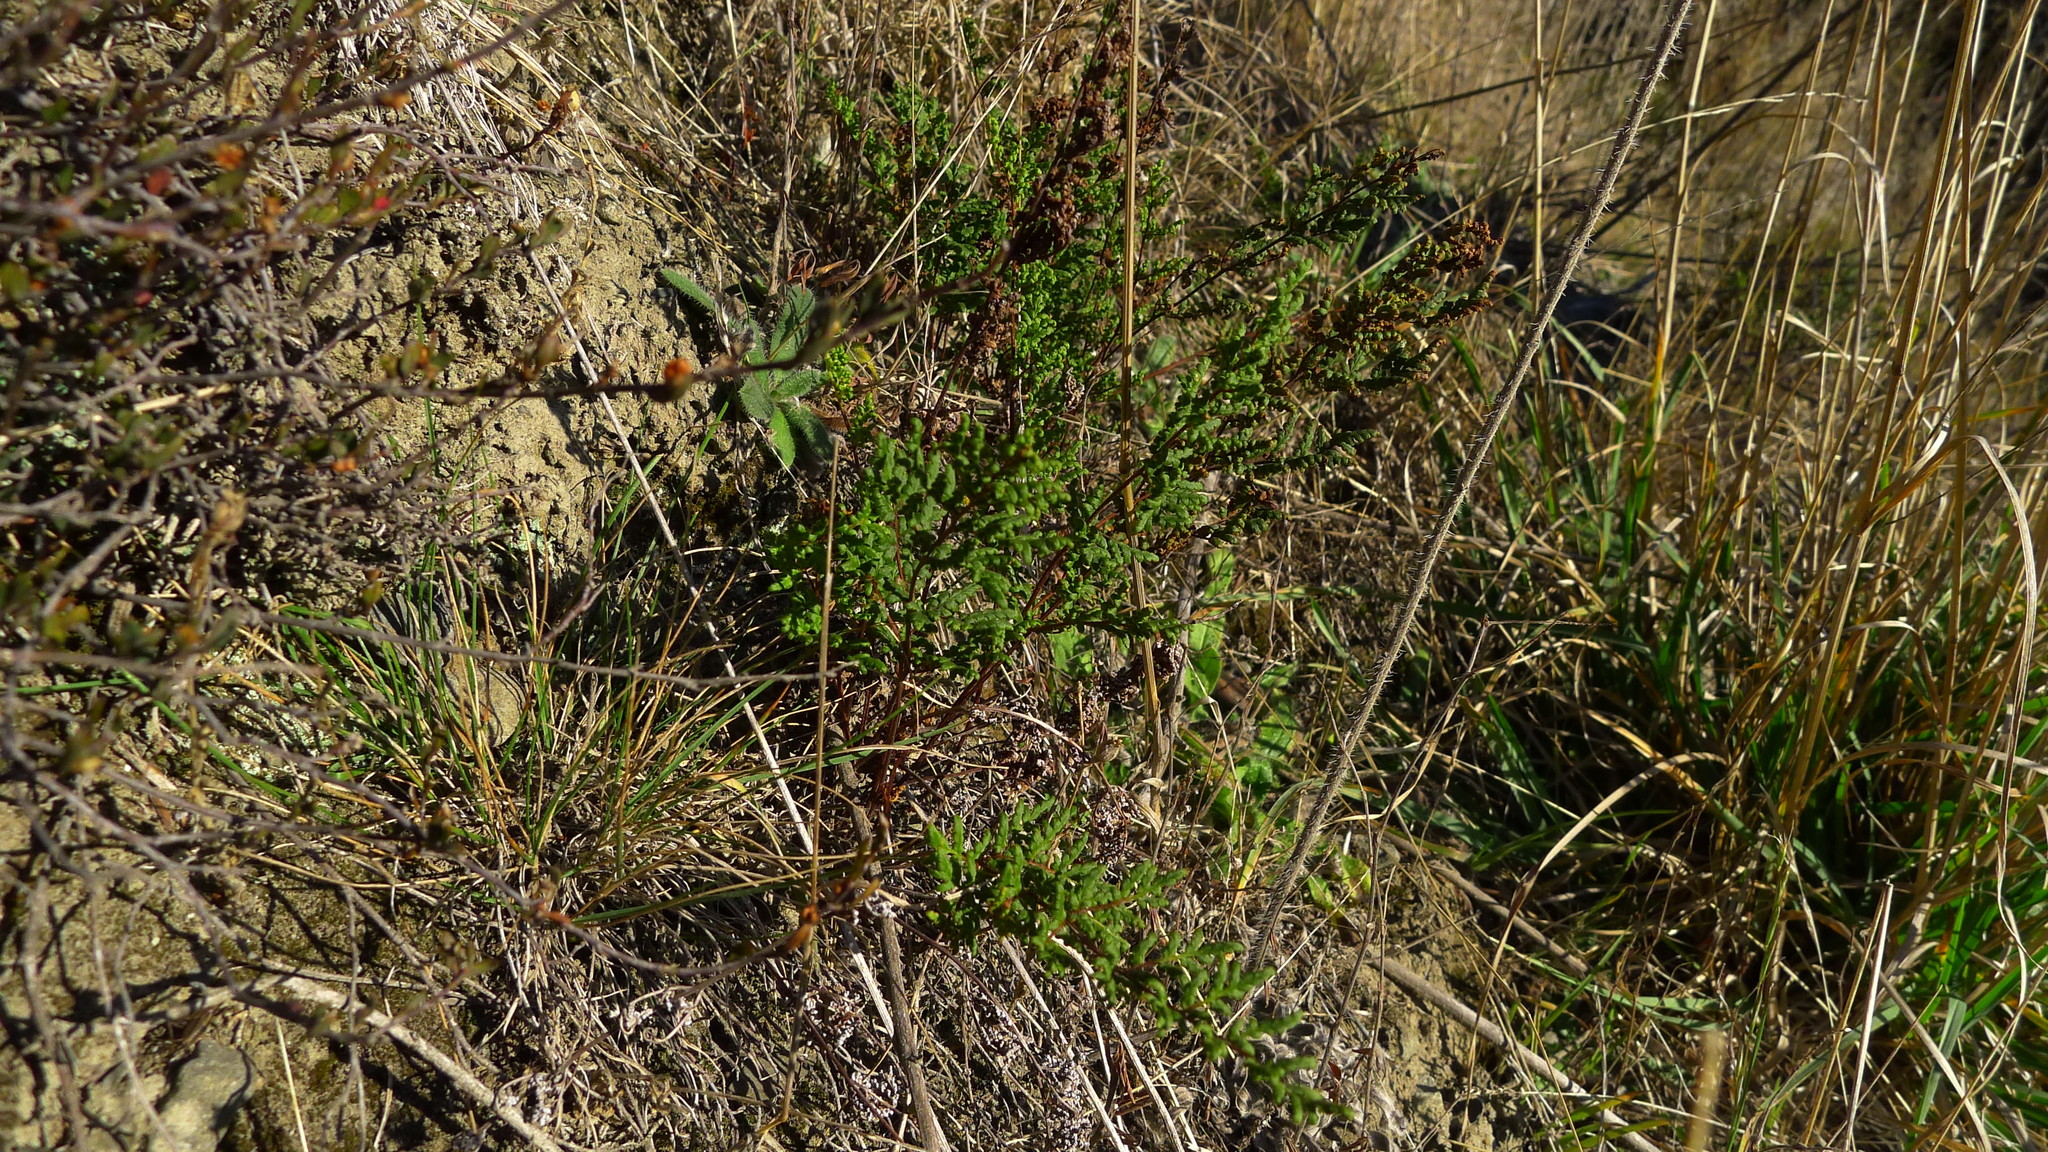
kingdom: Plantae
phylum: Tracheophyta
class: Polypodiopsida
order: Polypodiales
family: Pteridaceae
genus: Cheilanthes
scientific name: Cheilanthes sieberi
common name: Mulga fern
